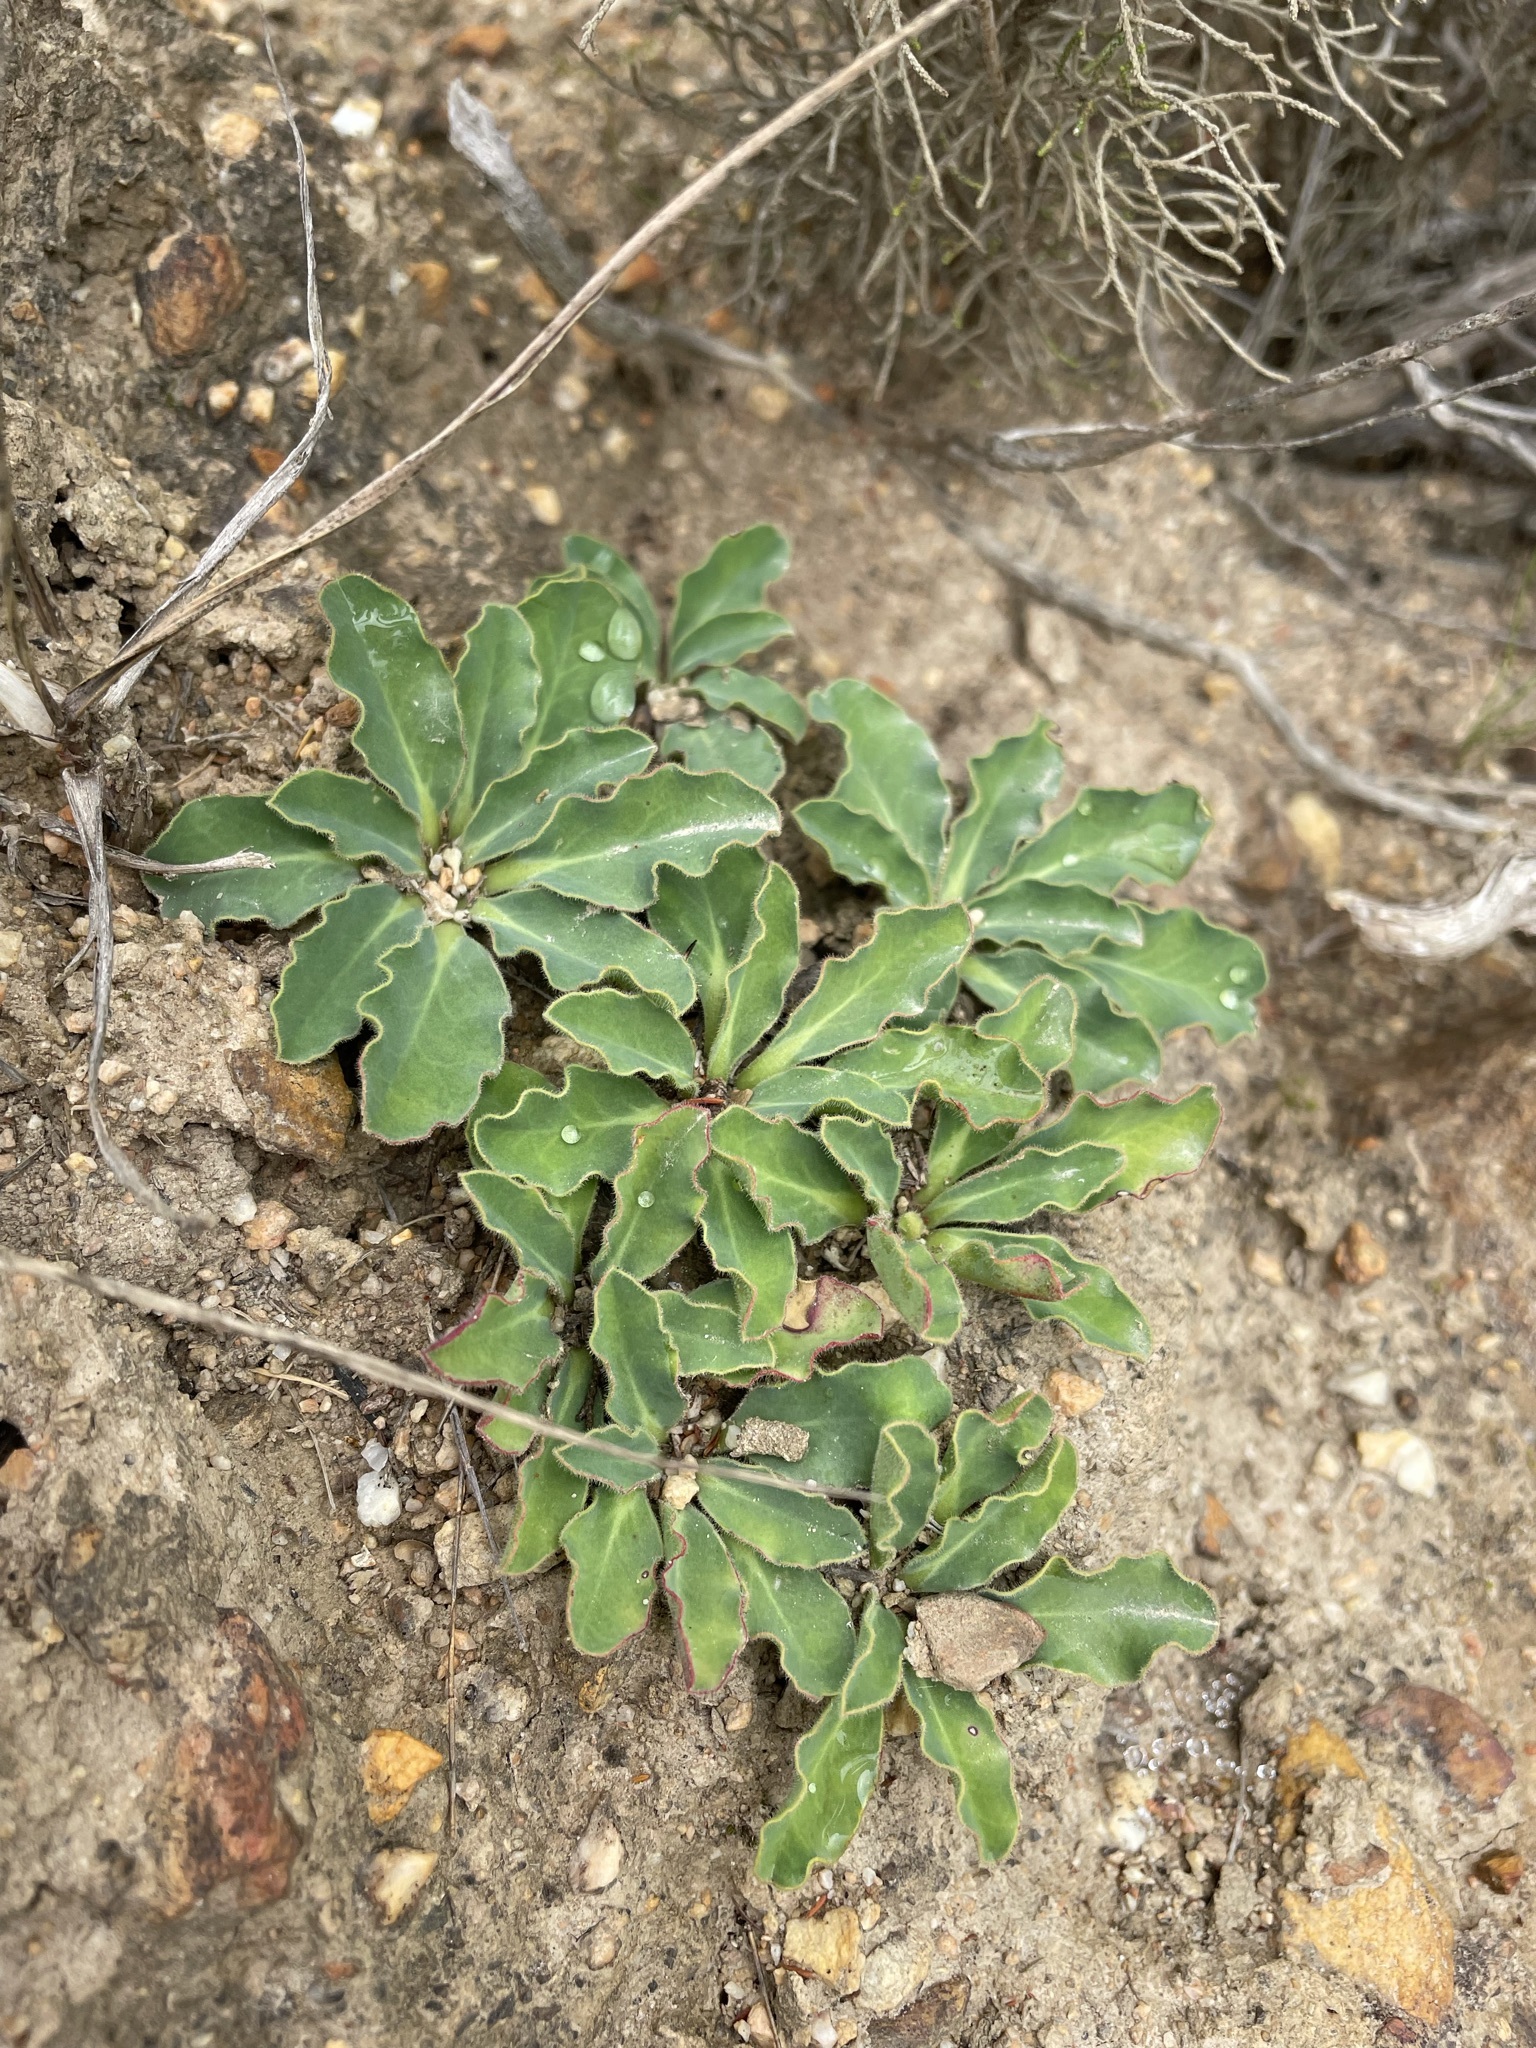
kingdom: Plantae
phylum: Tracheophyta
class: Magnoliopsida
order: Malpighiales
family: Euphorbiaceae
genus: Euphorbia
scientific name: Euphorbia tuberosa
